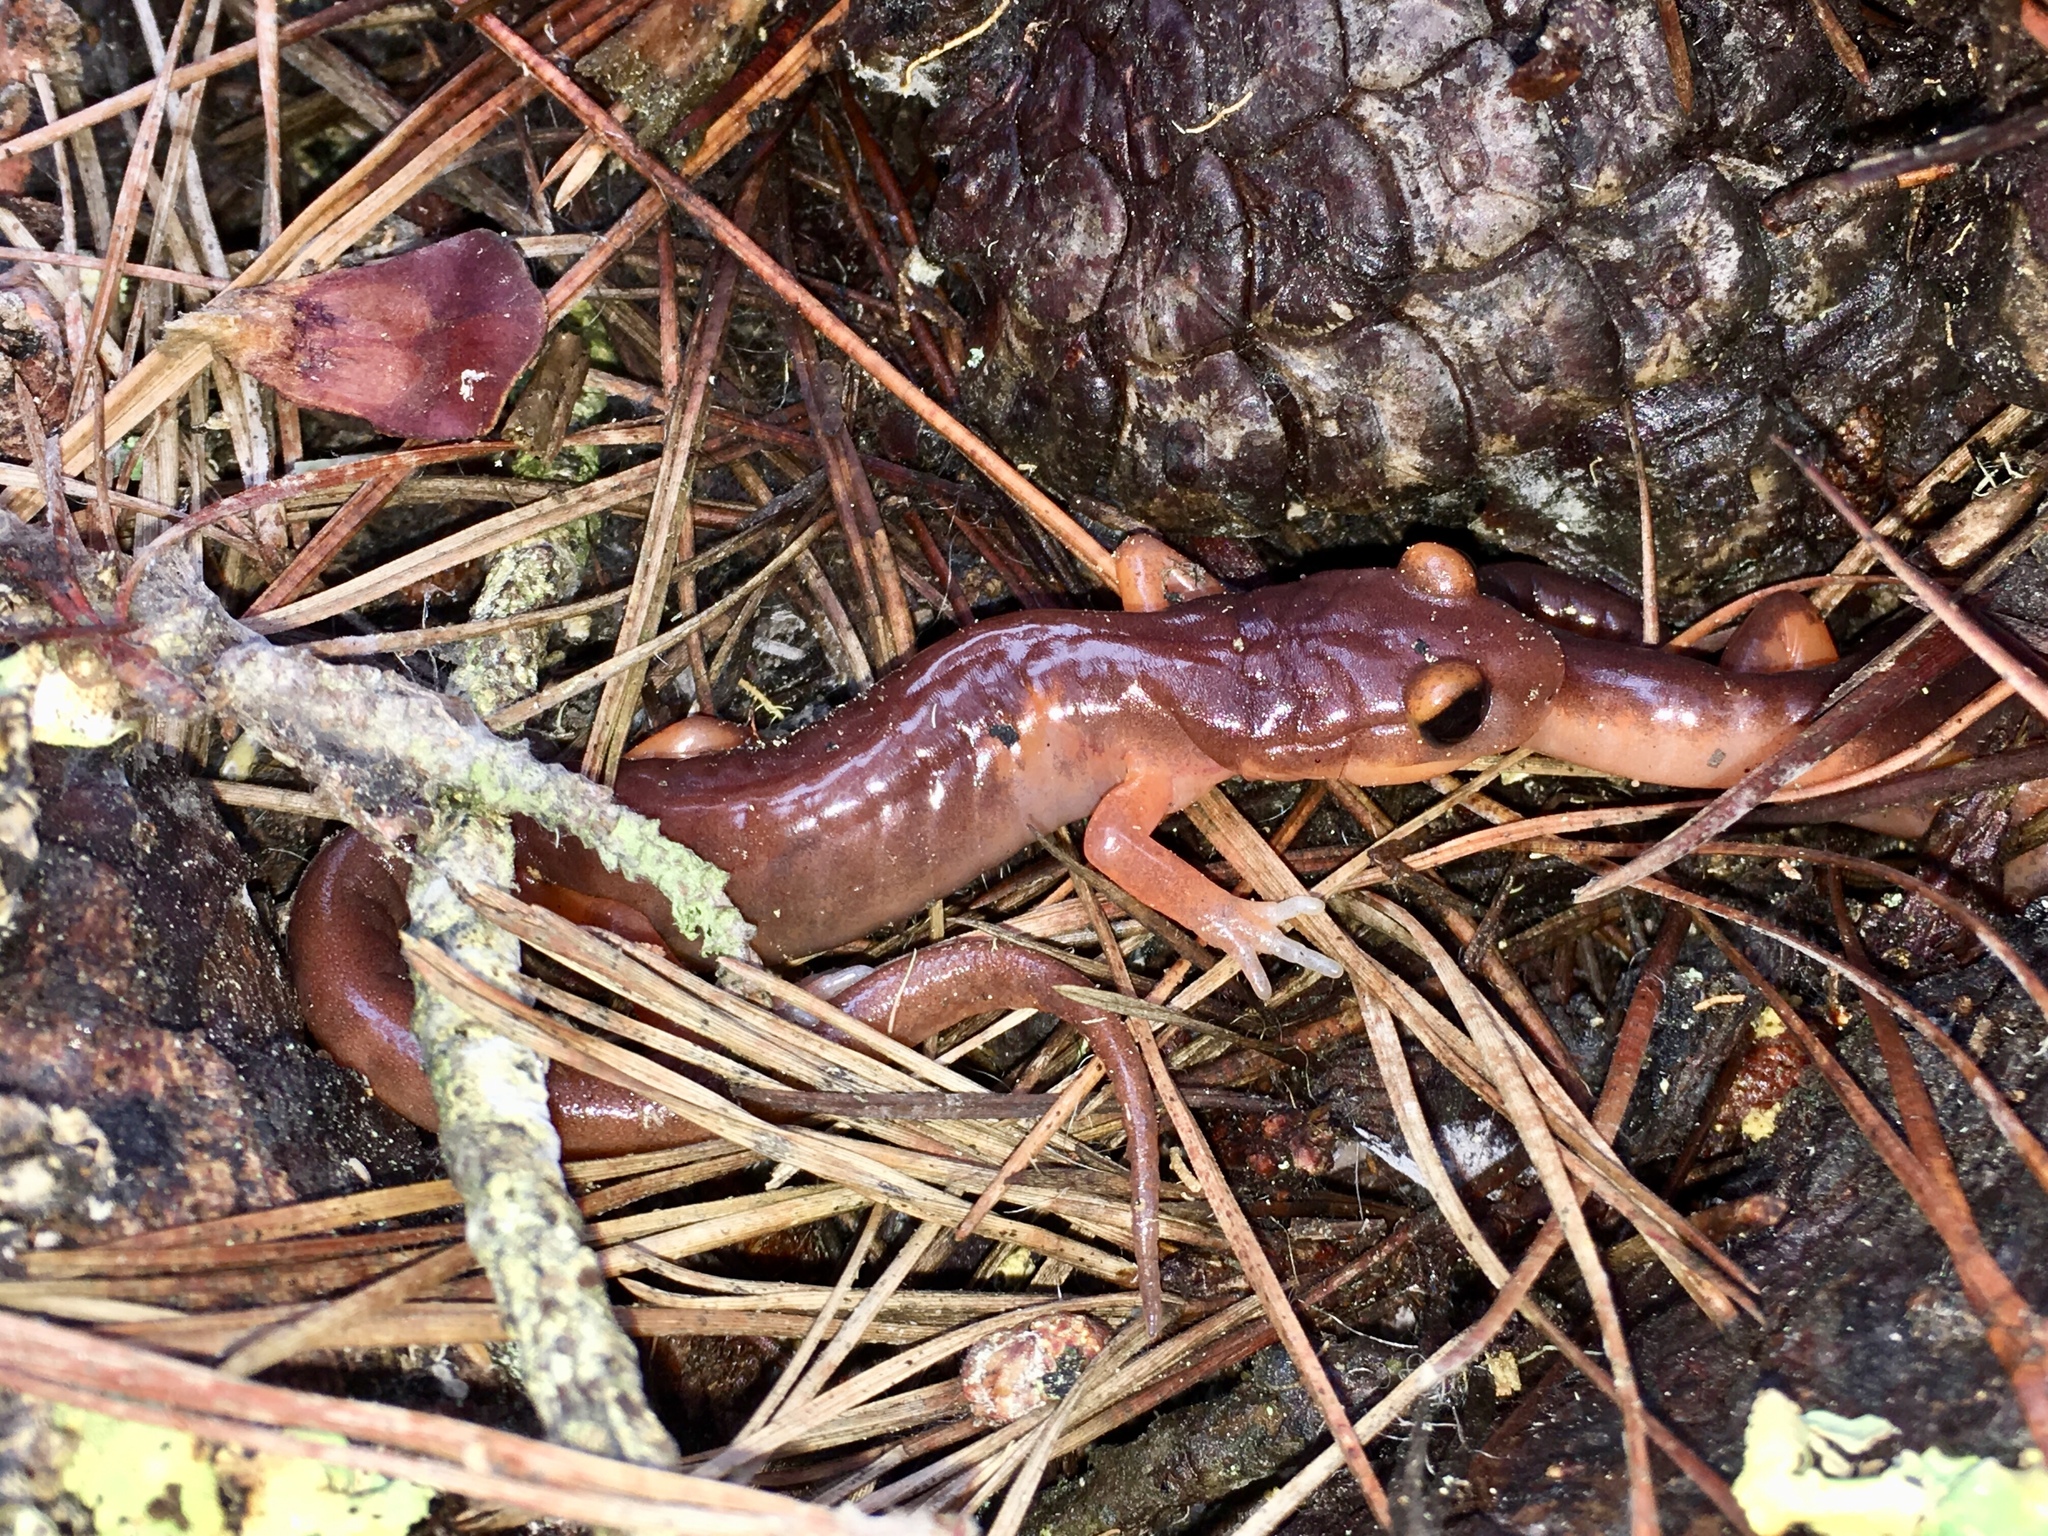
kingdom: Animalia
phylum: Chordata
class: Amphibia
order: Caudata
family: Plethodontidae
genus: Ensatina
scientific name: Ensatina eschscholtzii
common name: Ensatina
